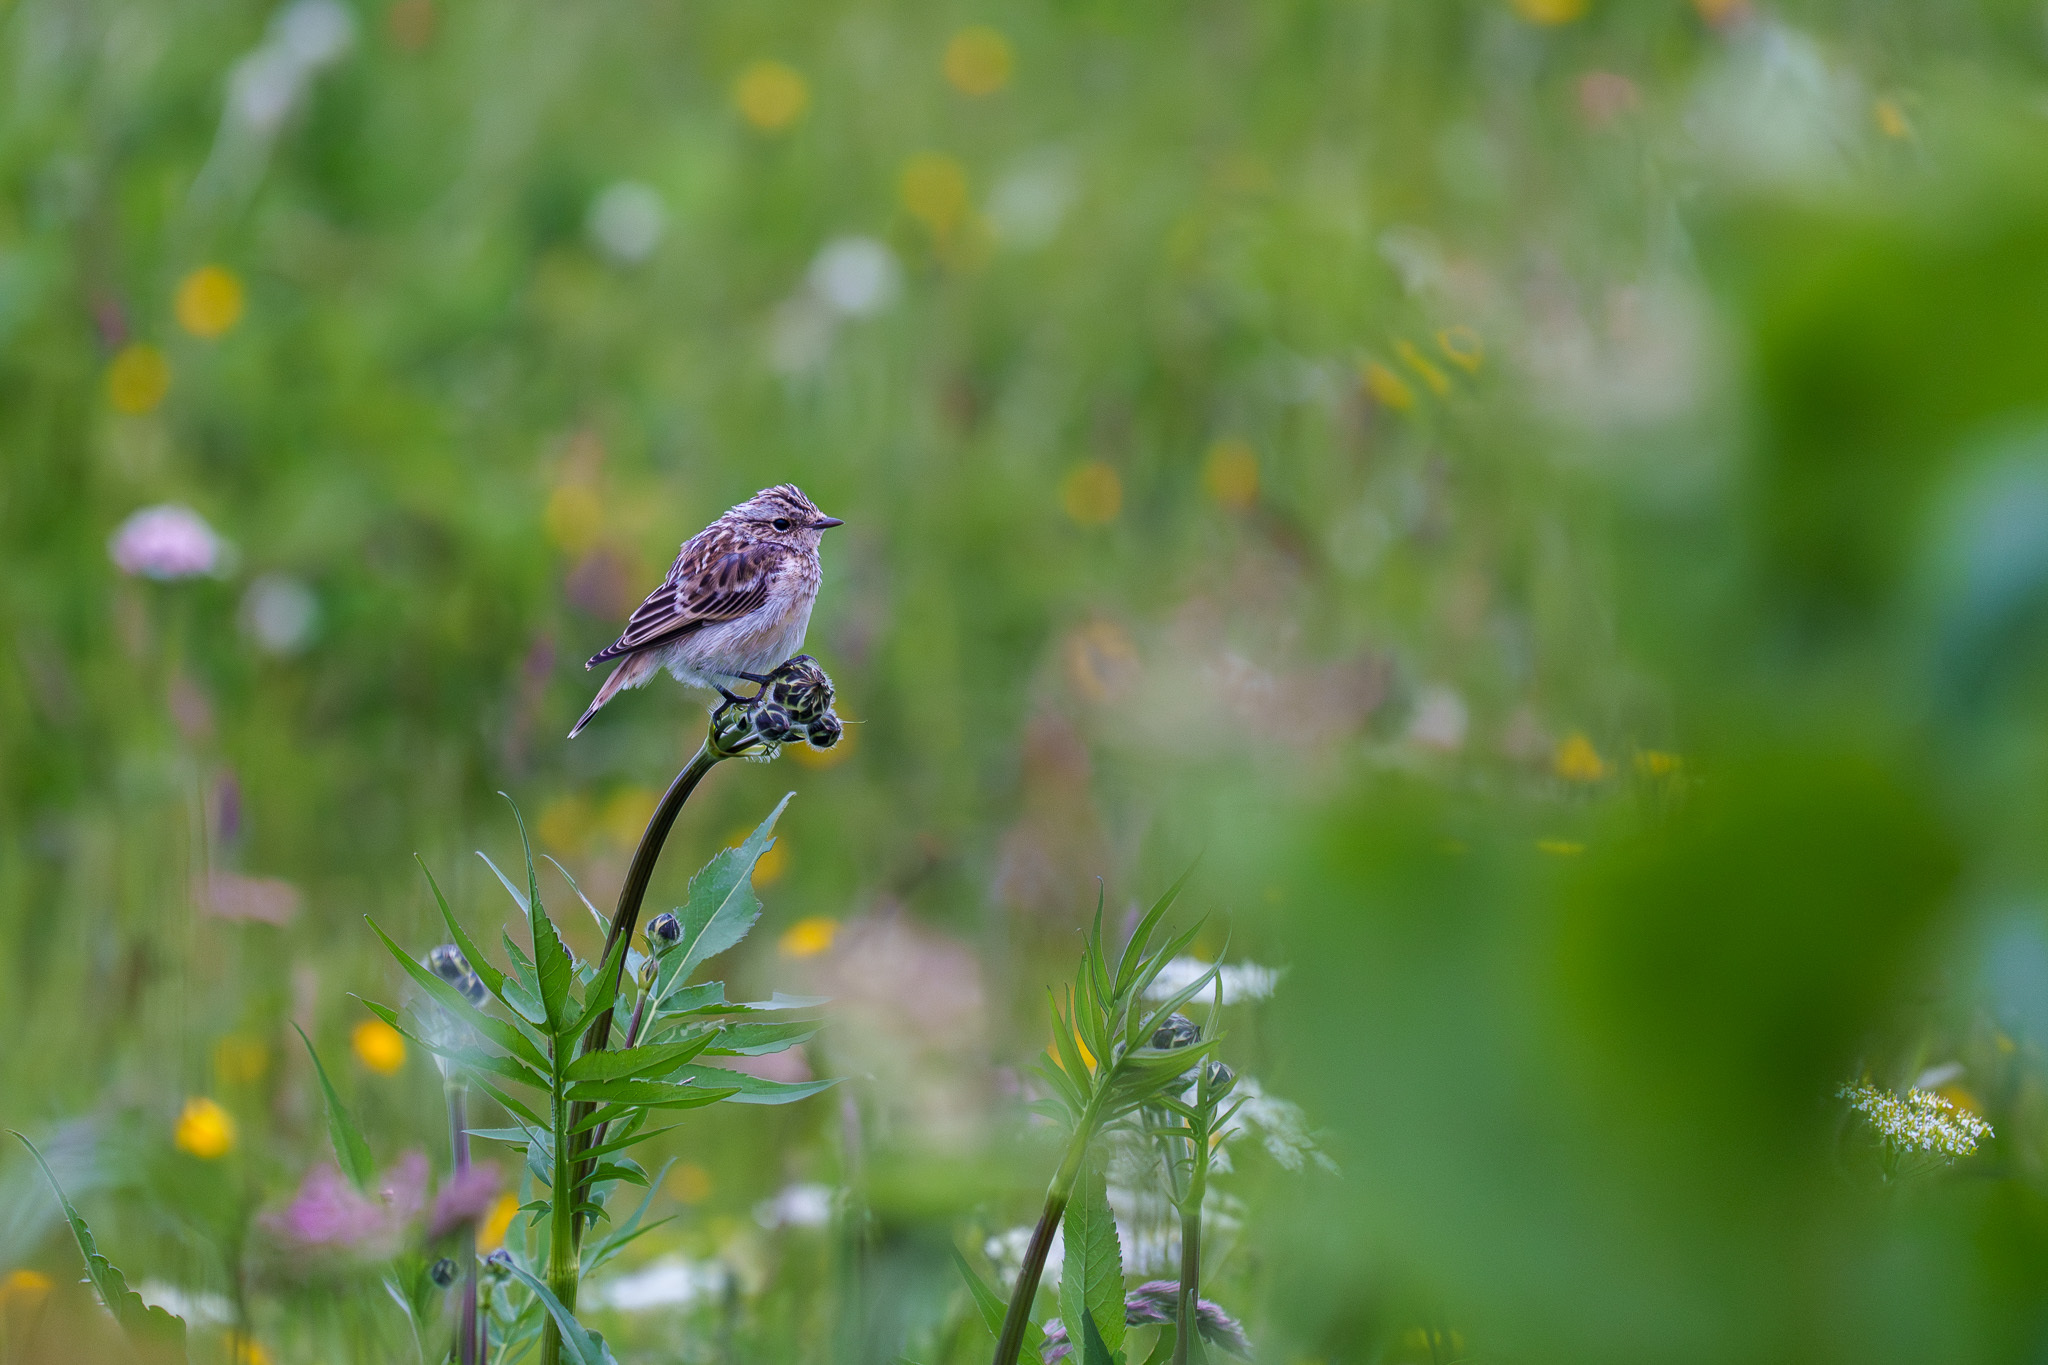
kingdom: Animalia
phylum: Chordata
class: Aves
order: Passeriformes
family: Muscicapidae
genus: Saxicola
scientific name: Saxicola rubetra
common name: Whinchat
